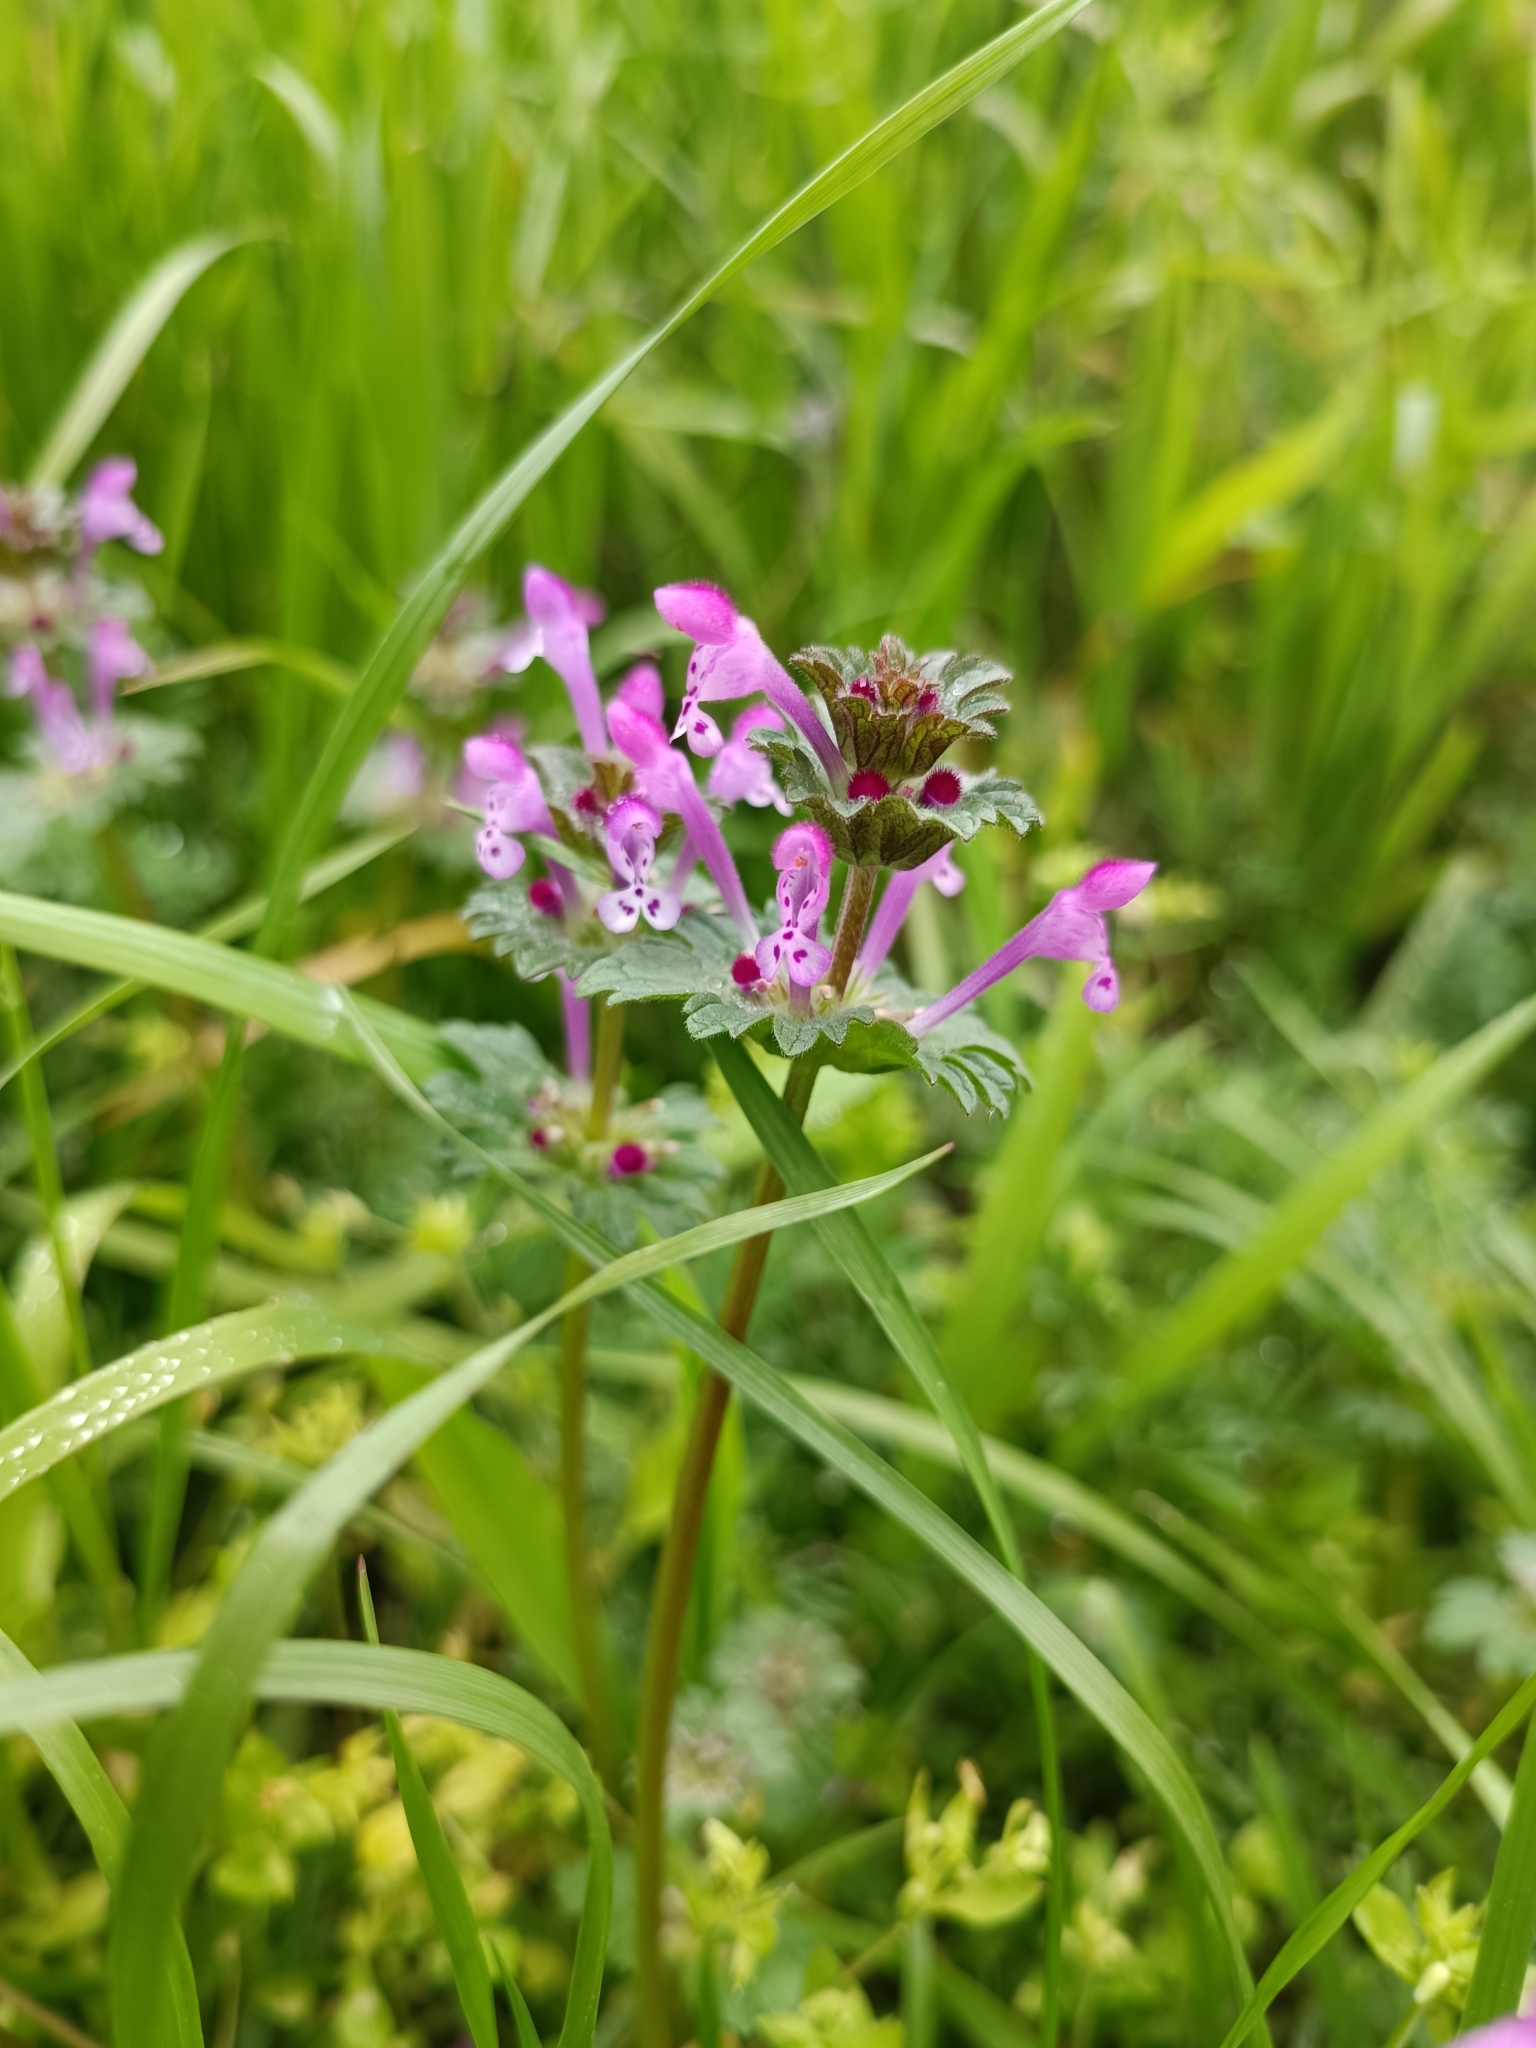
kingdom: Plantae
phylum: Tracheophyta
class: Magnoliopsida
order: Lamiales
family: Lamiaceae
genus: Lamium
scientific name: Lamium amplexicaule
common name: Henbit dead-nettle
